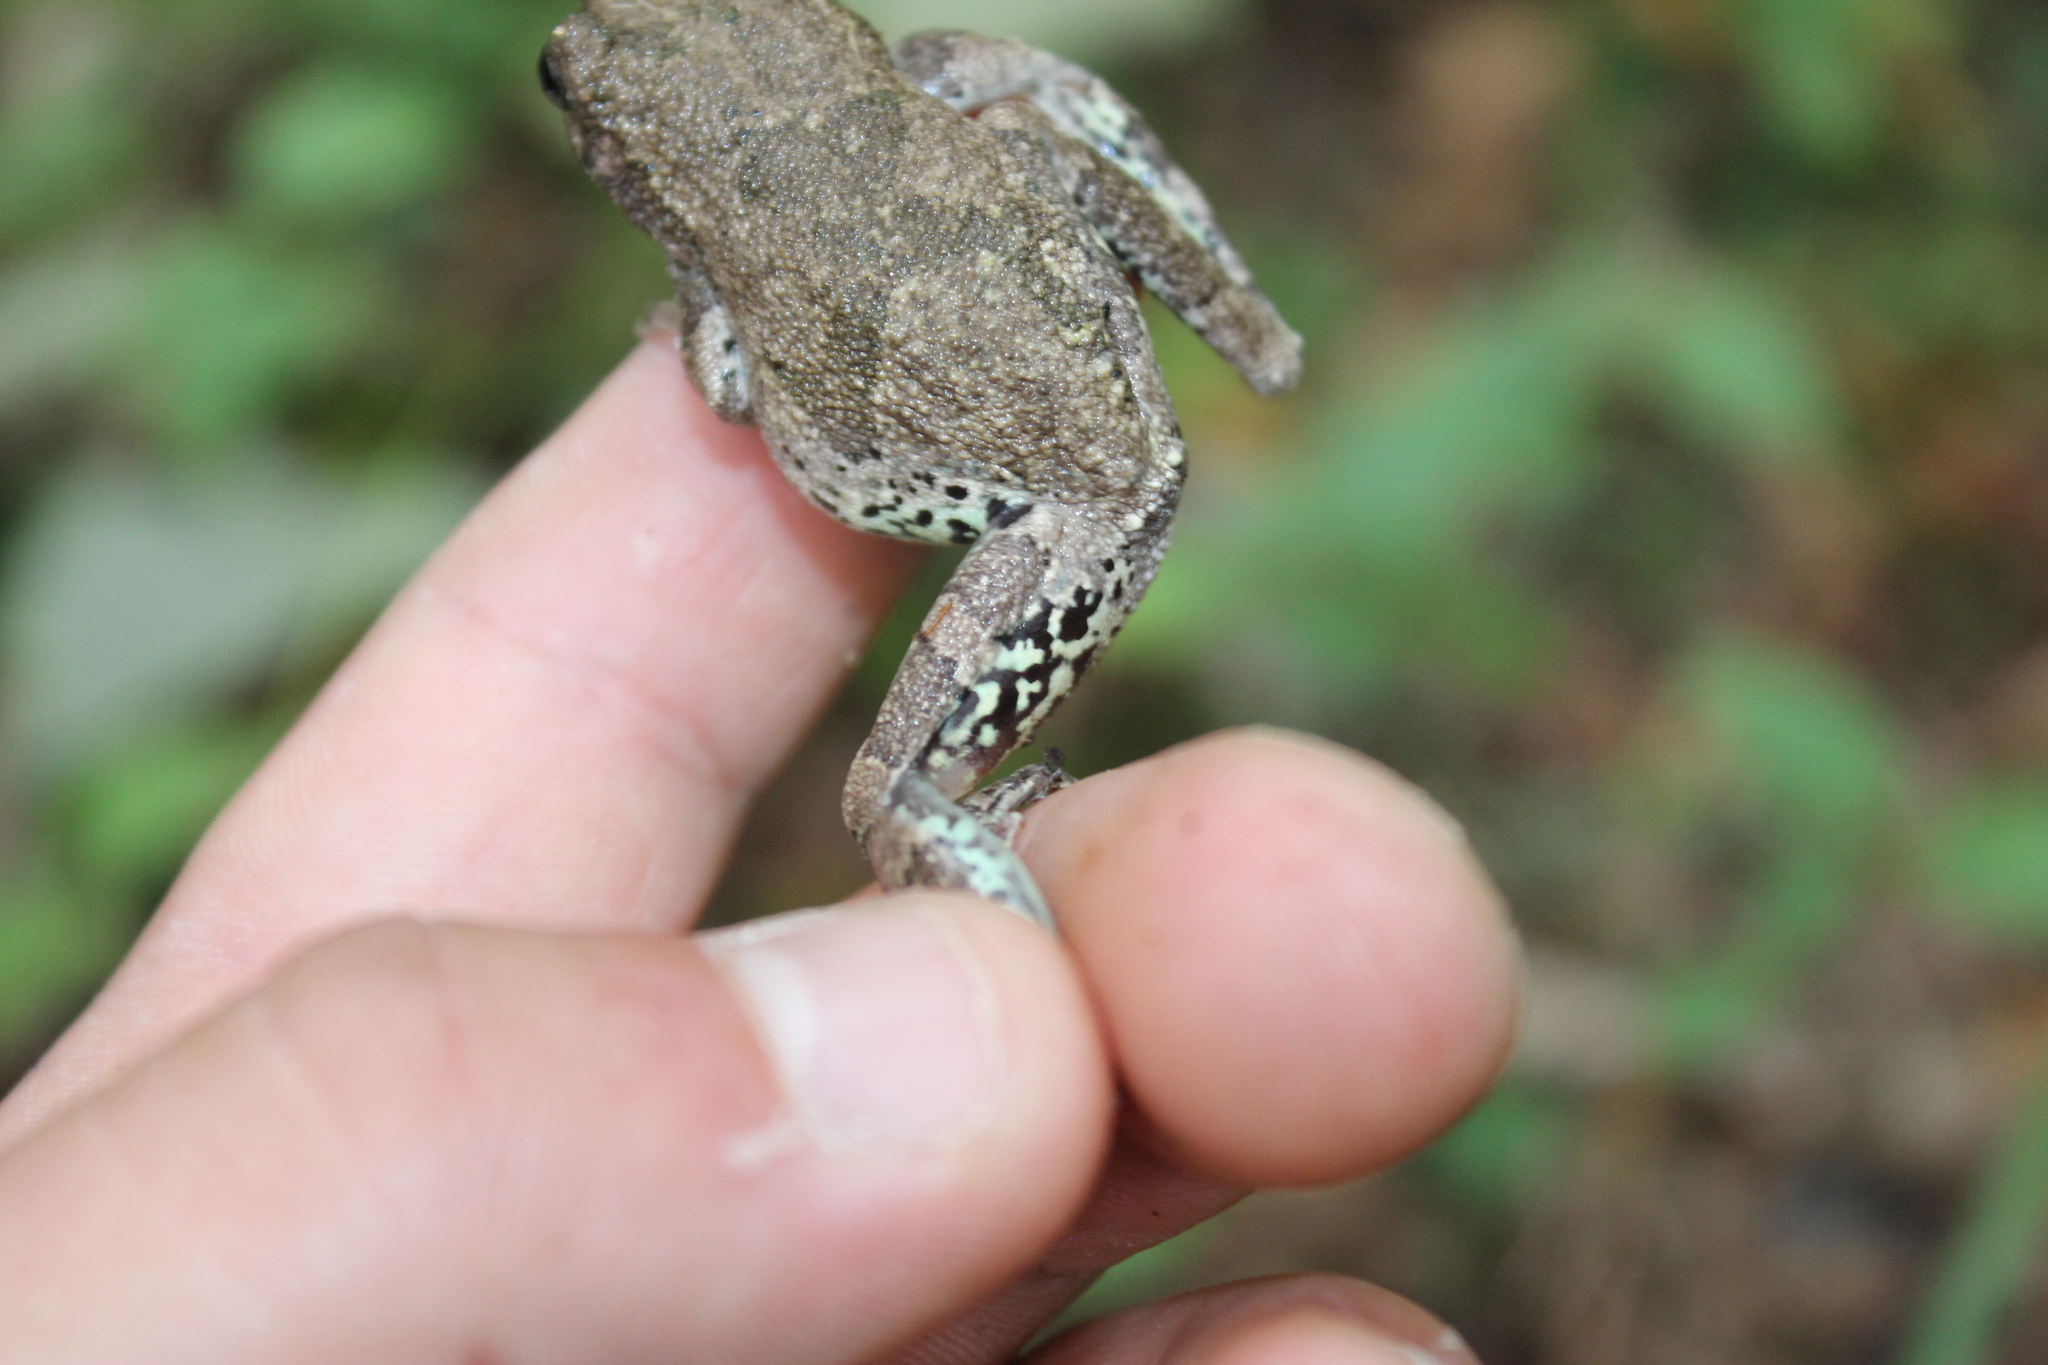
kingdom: Animalia
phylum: Chordata
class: Amphibia
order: Anura
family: Hylidae
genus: Dryophytes
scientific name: Dryophytes avivoca
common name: Bird-voiced treefrog
